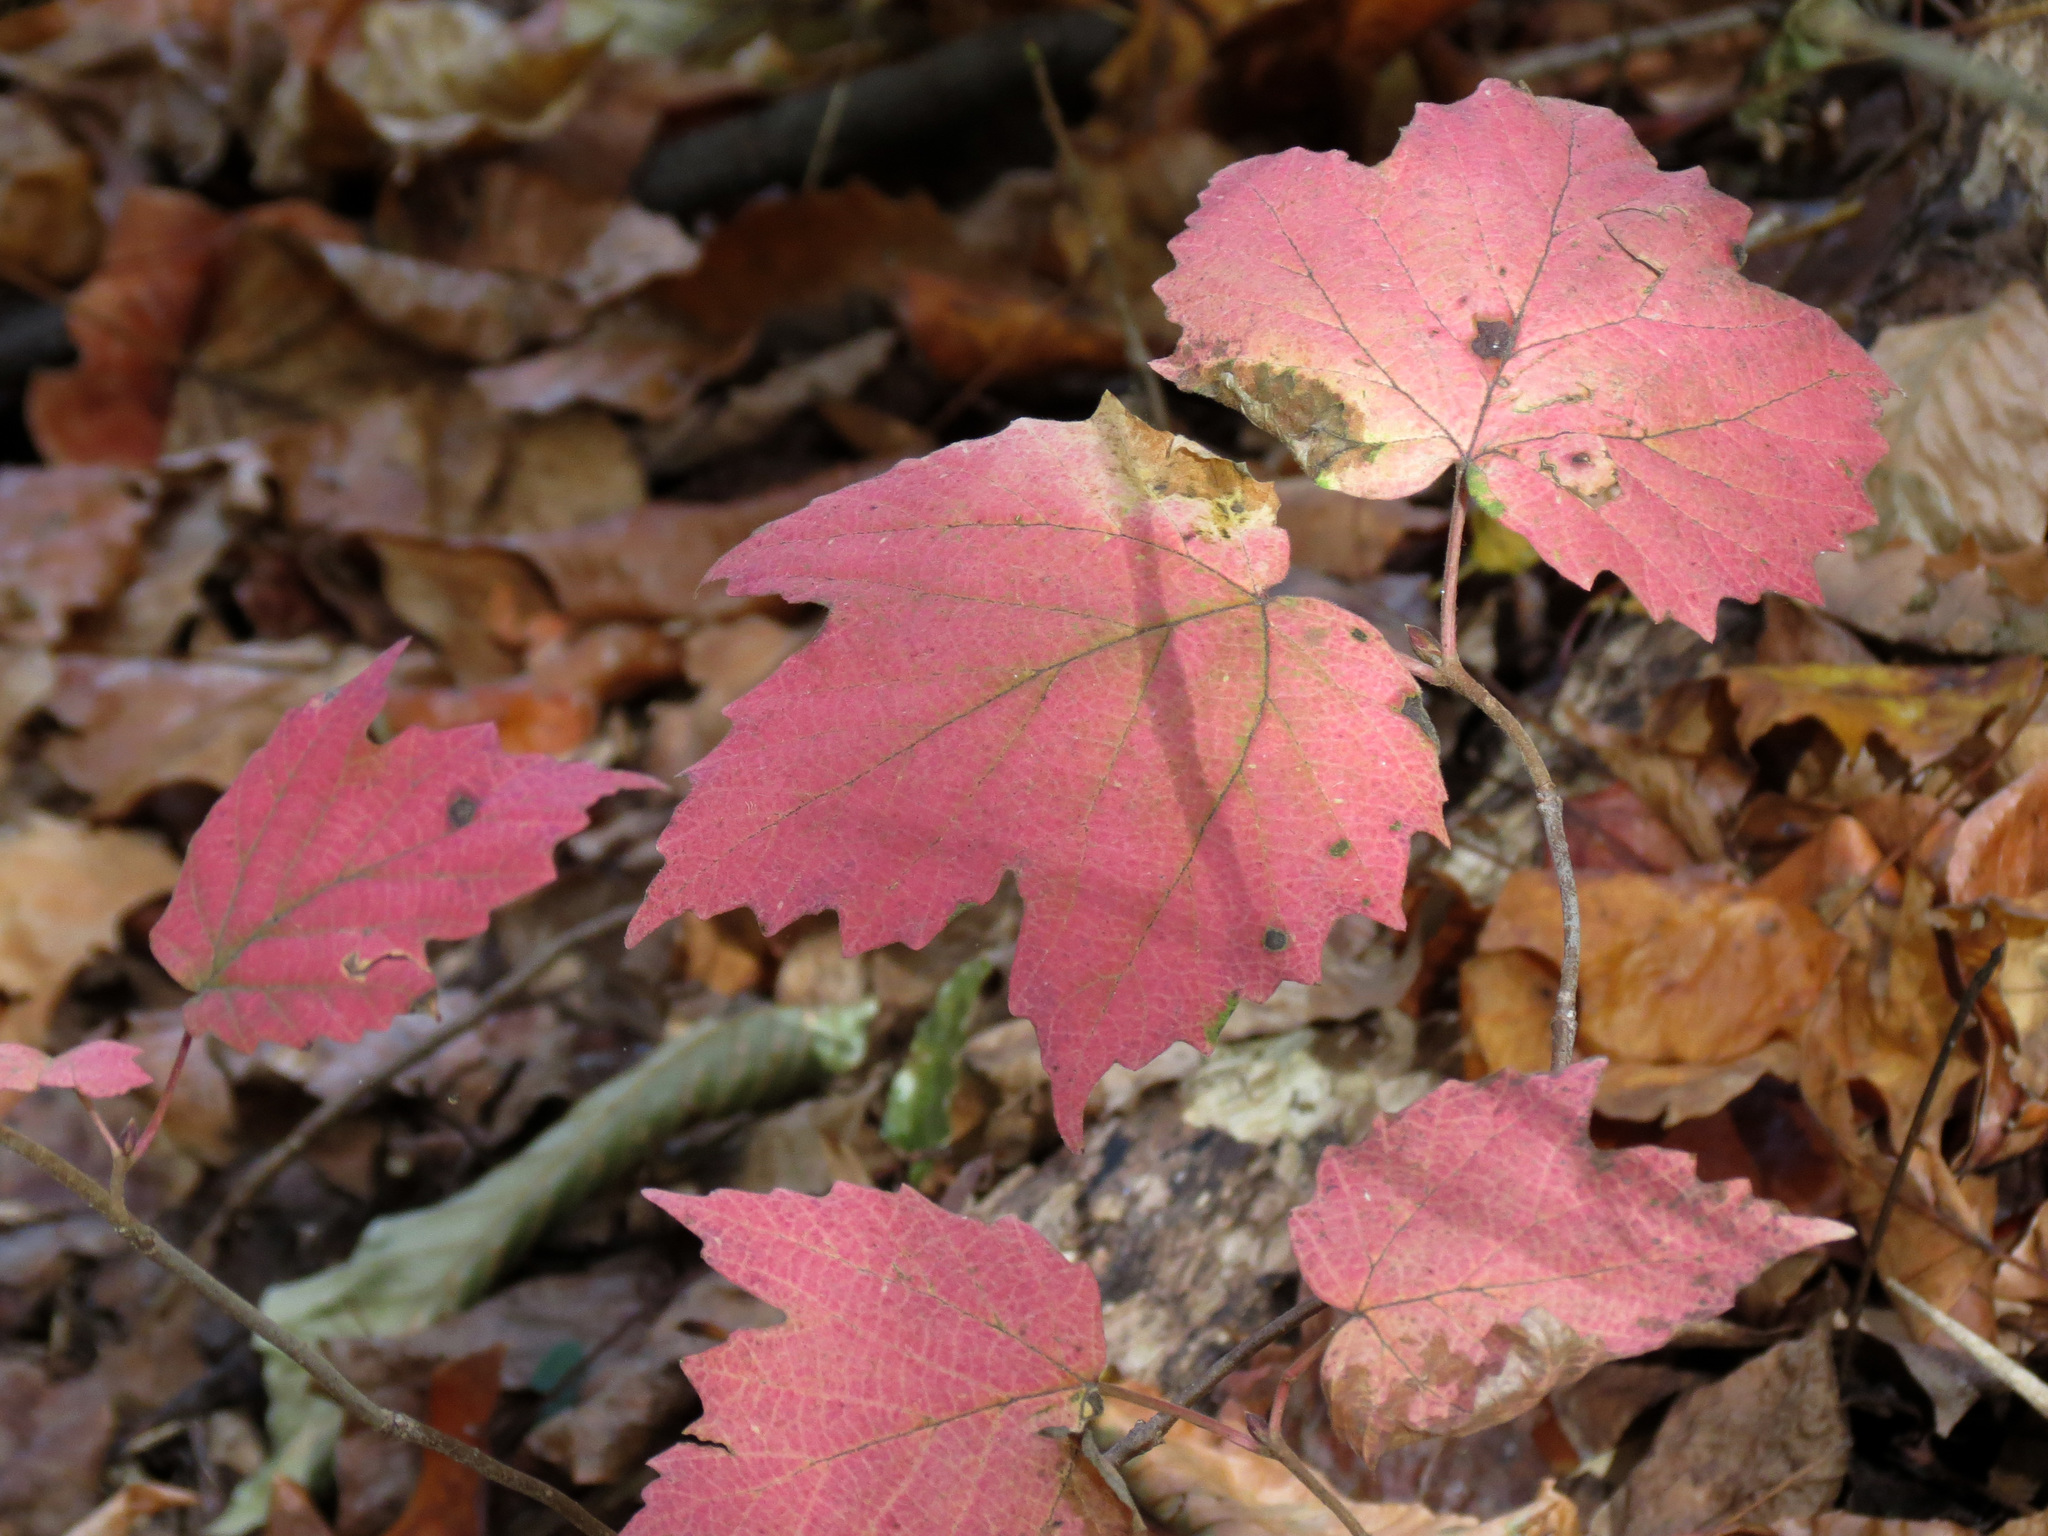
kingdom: Plantae
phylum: Tracheophyta
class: Magnoliopsida
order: Dipsacales
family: Viburnaceae
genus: Viburnum
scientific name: Viburnum acerifolium
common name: Dockmackie
